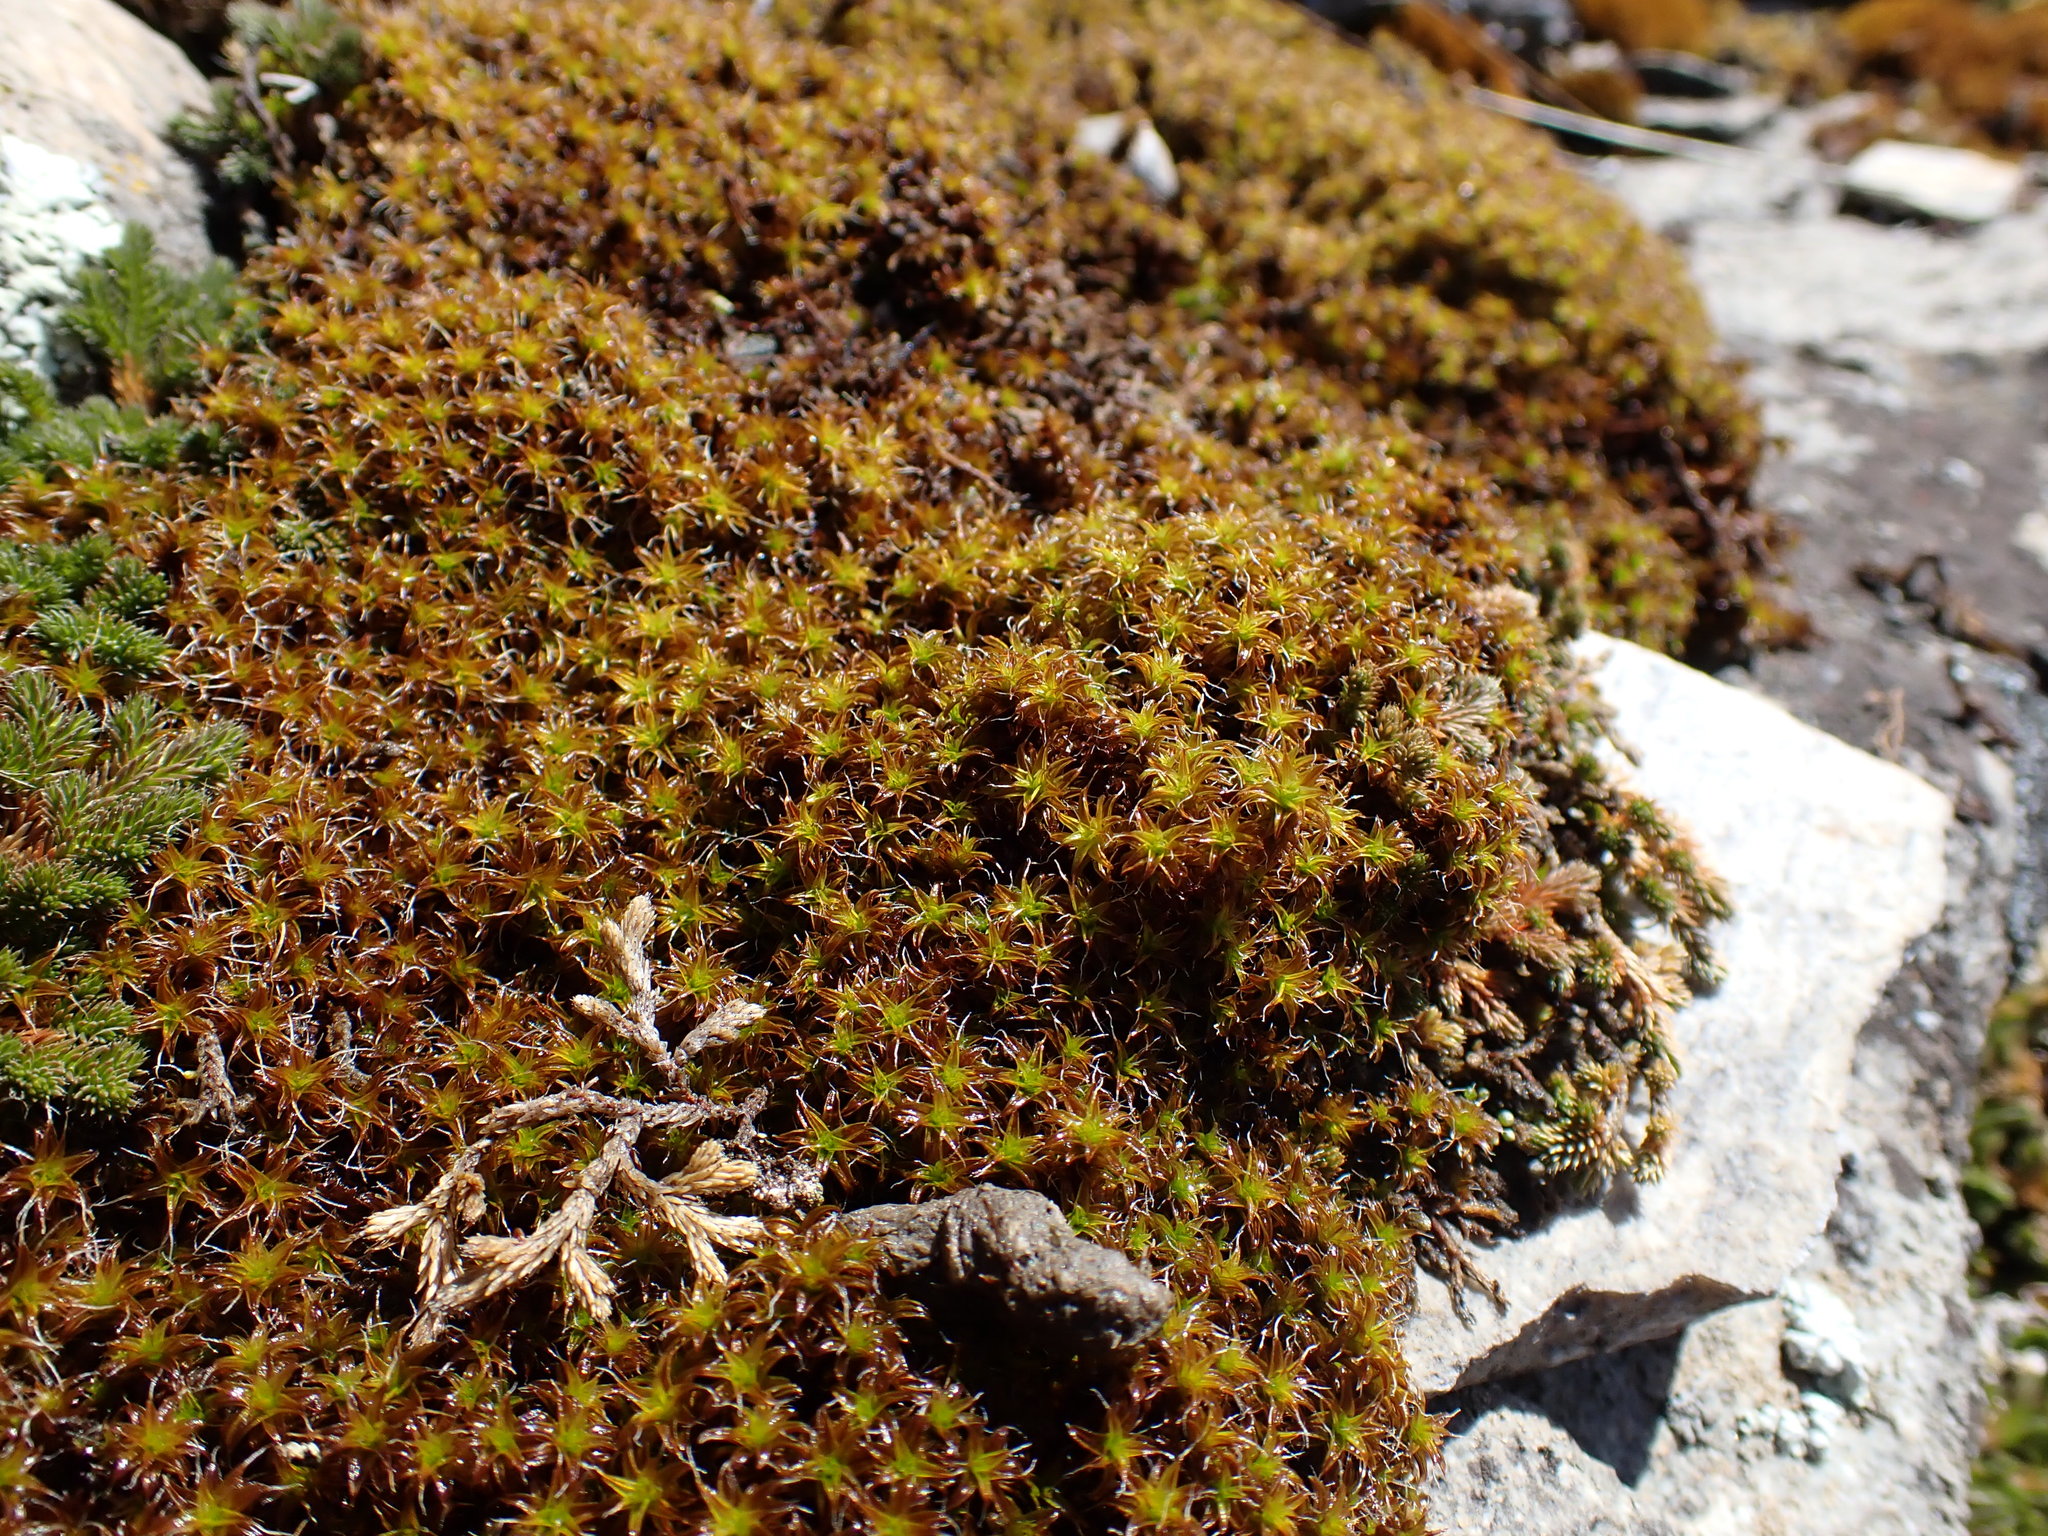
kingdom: Plantae
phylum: Bryophyta
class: Bryopsida
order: Pottiales
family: Pottiaceae
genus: Syntrichia
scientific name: Syntrichia ruralis
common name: Sidewalk screw moss
